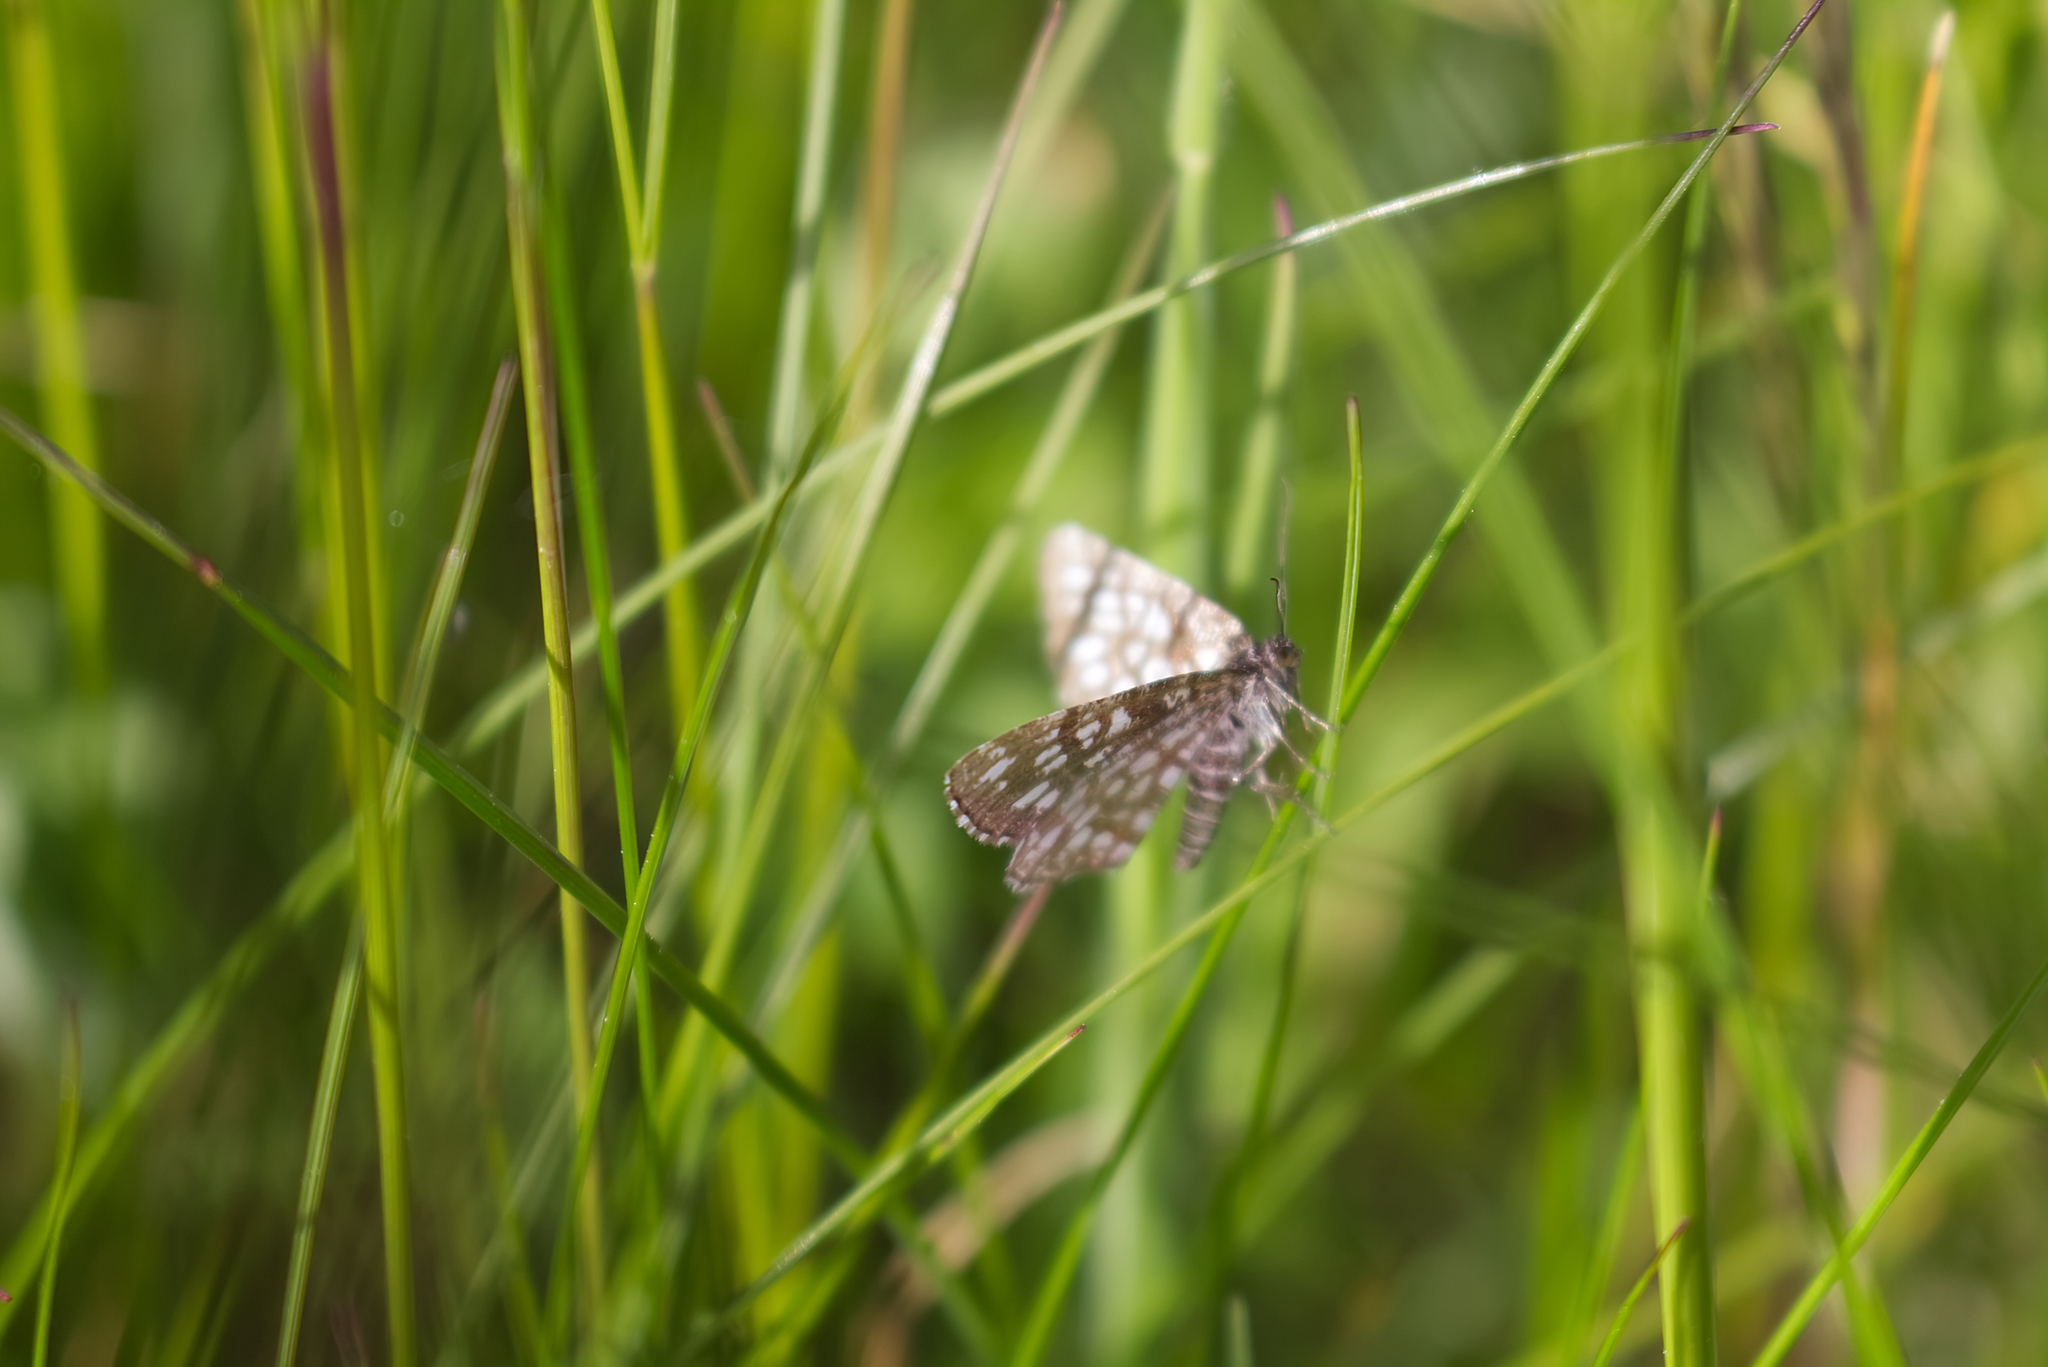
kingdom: Animalia
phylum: Arthropoda
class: Insecta
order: Lepidoptera
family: Geometridae
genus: Chiasmia
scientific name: Chiasmia clathrata
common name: Latticed heath
